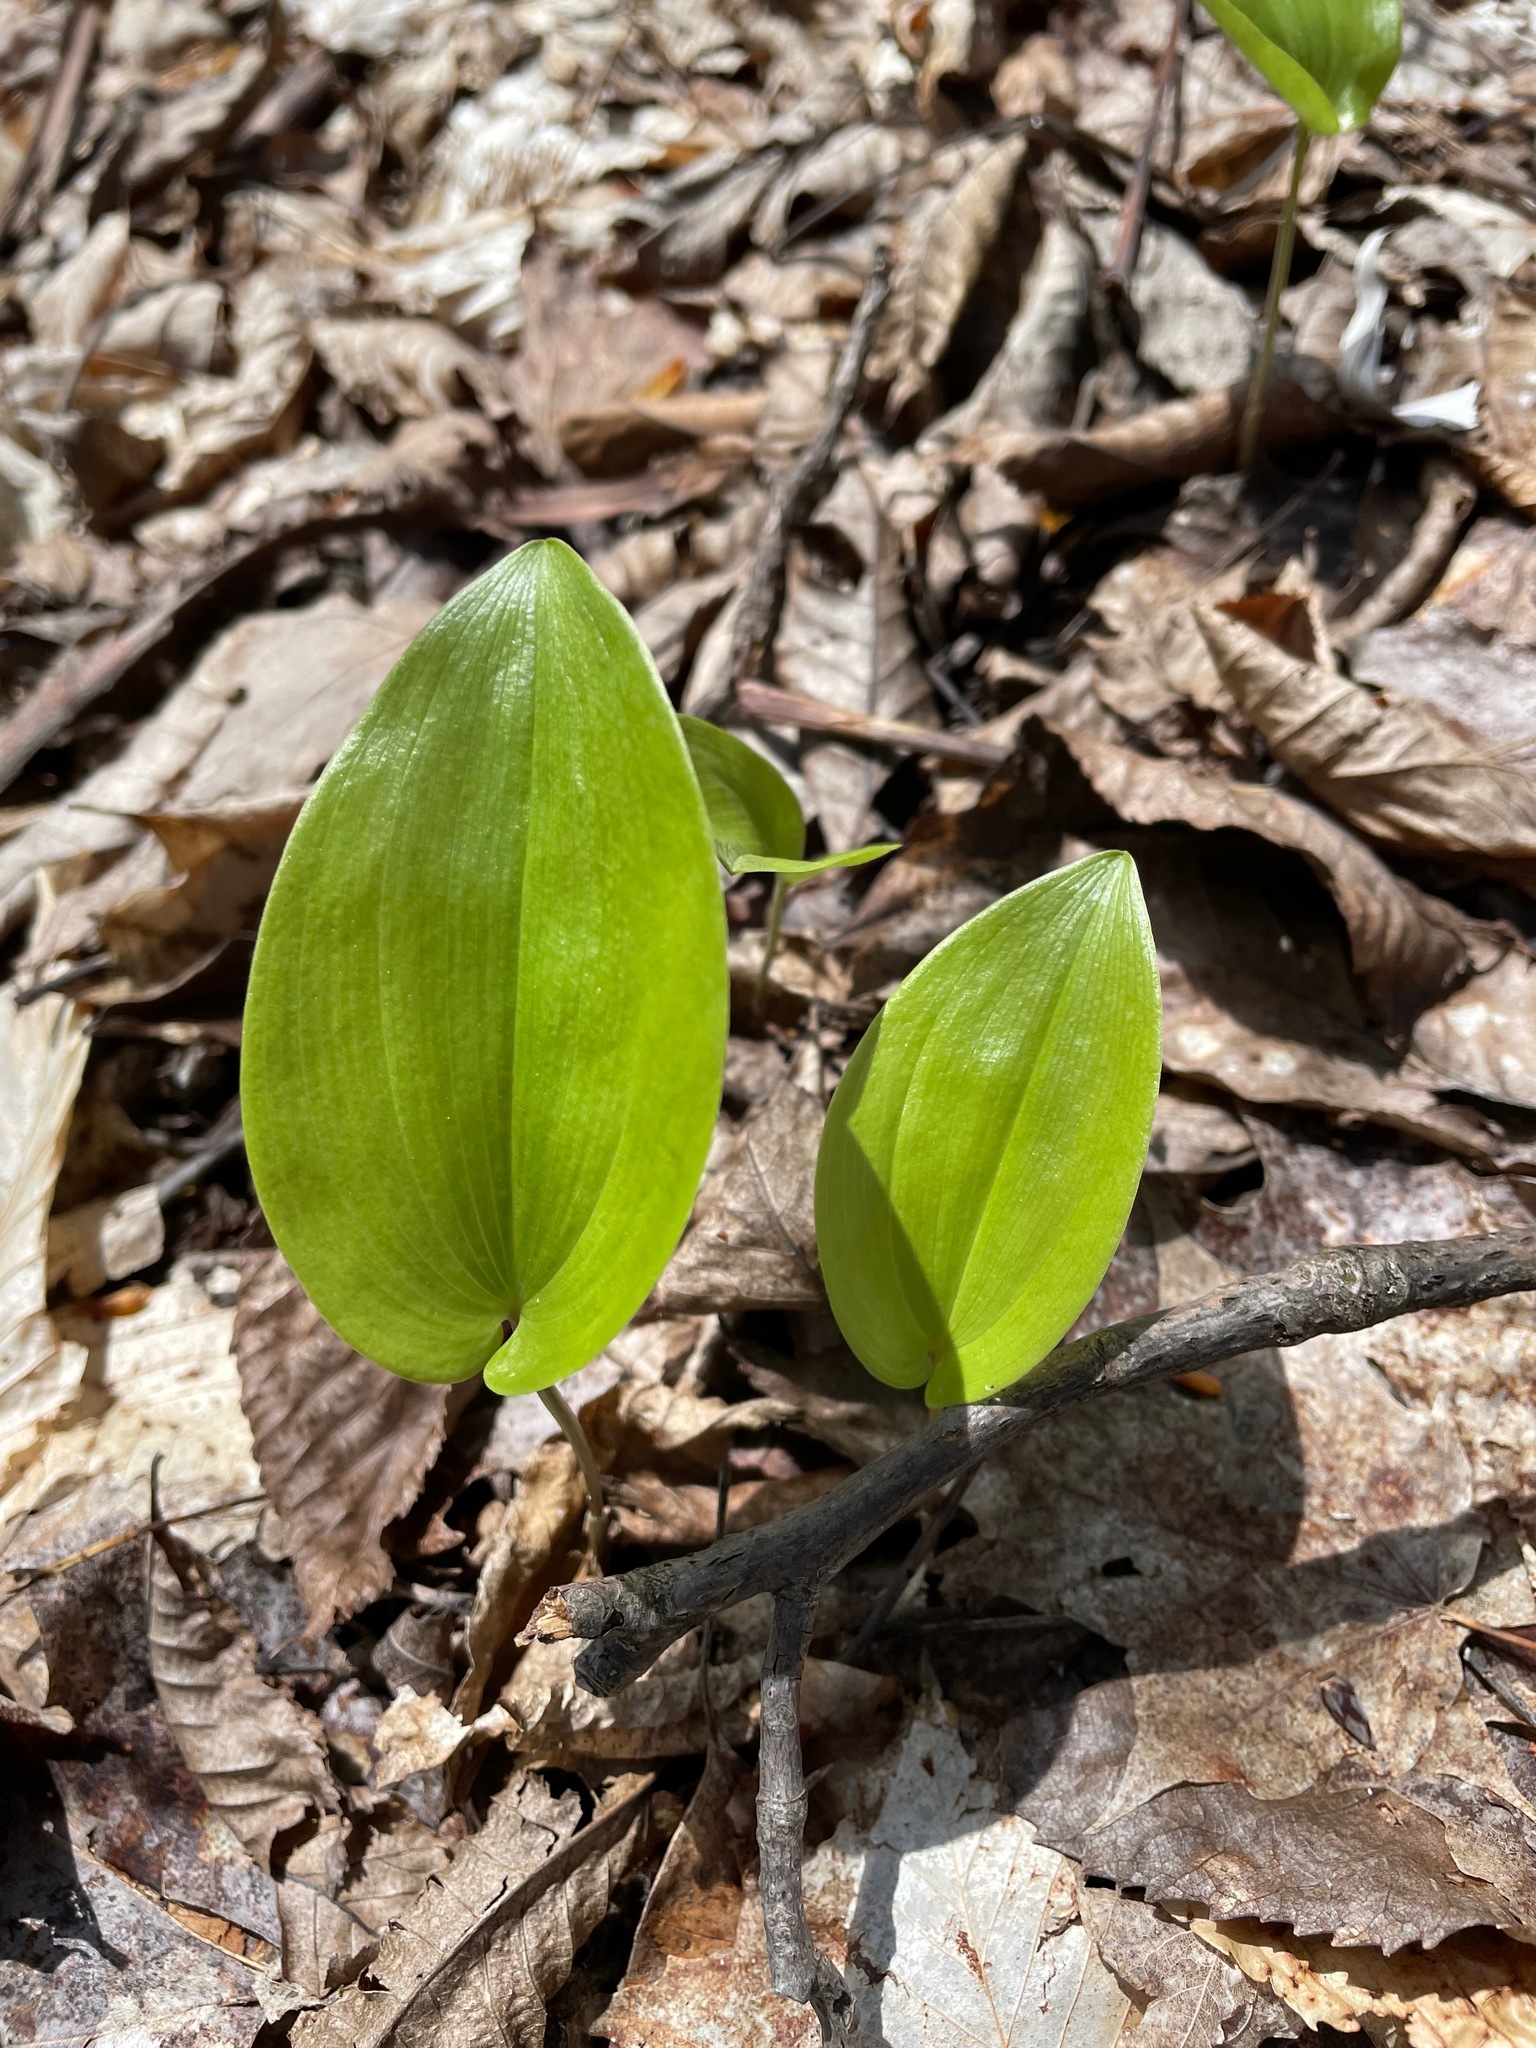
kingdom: Plantae
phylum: Tracheophyta
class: Liliopsida
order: Asparagales
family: Asparagaceae
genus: Maianthemum
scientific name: Maianthemum canadense
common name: False lily-of-the-valley
